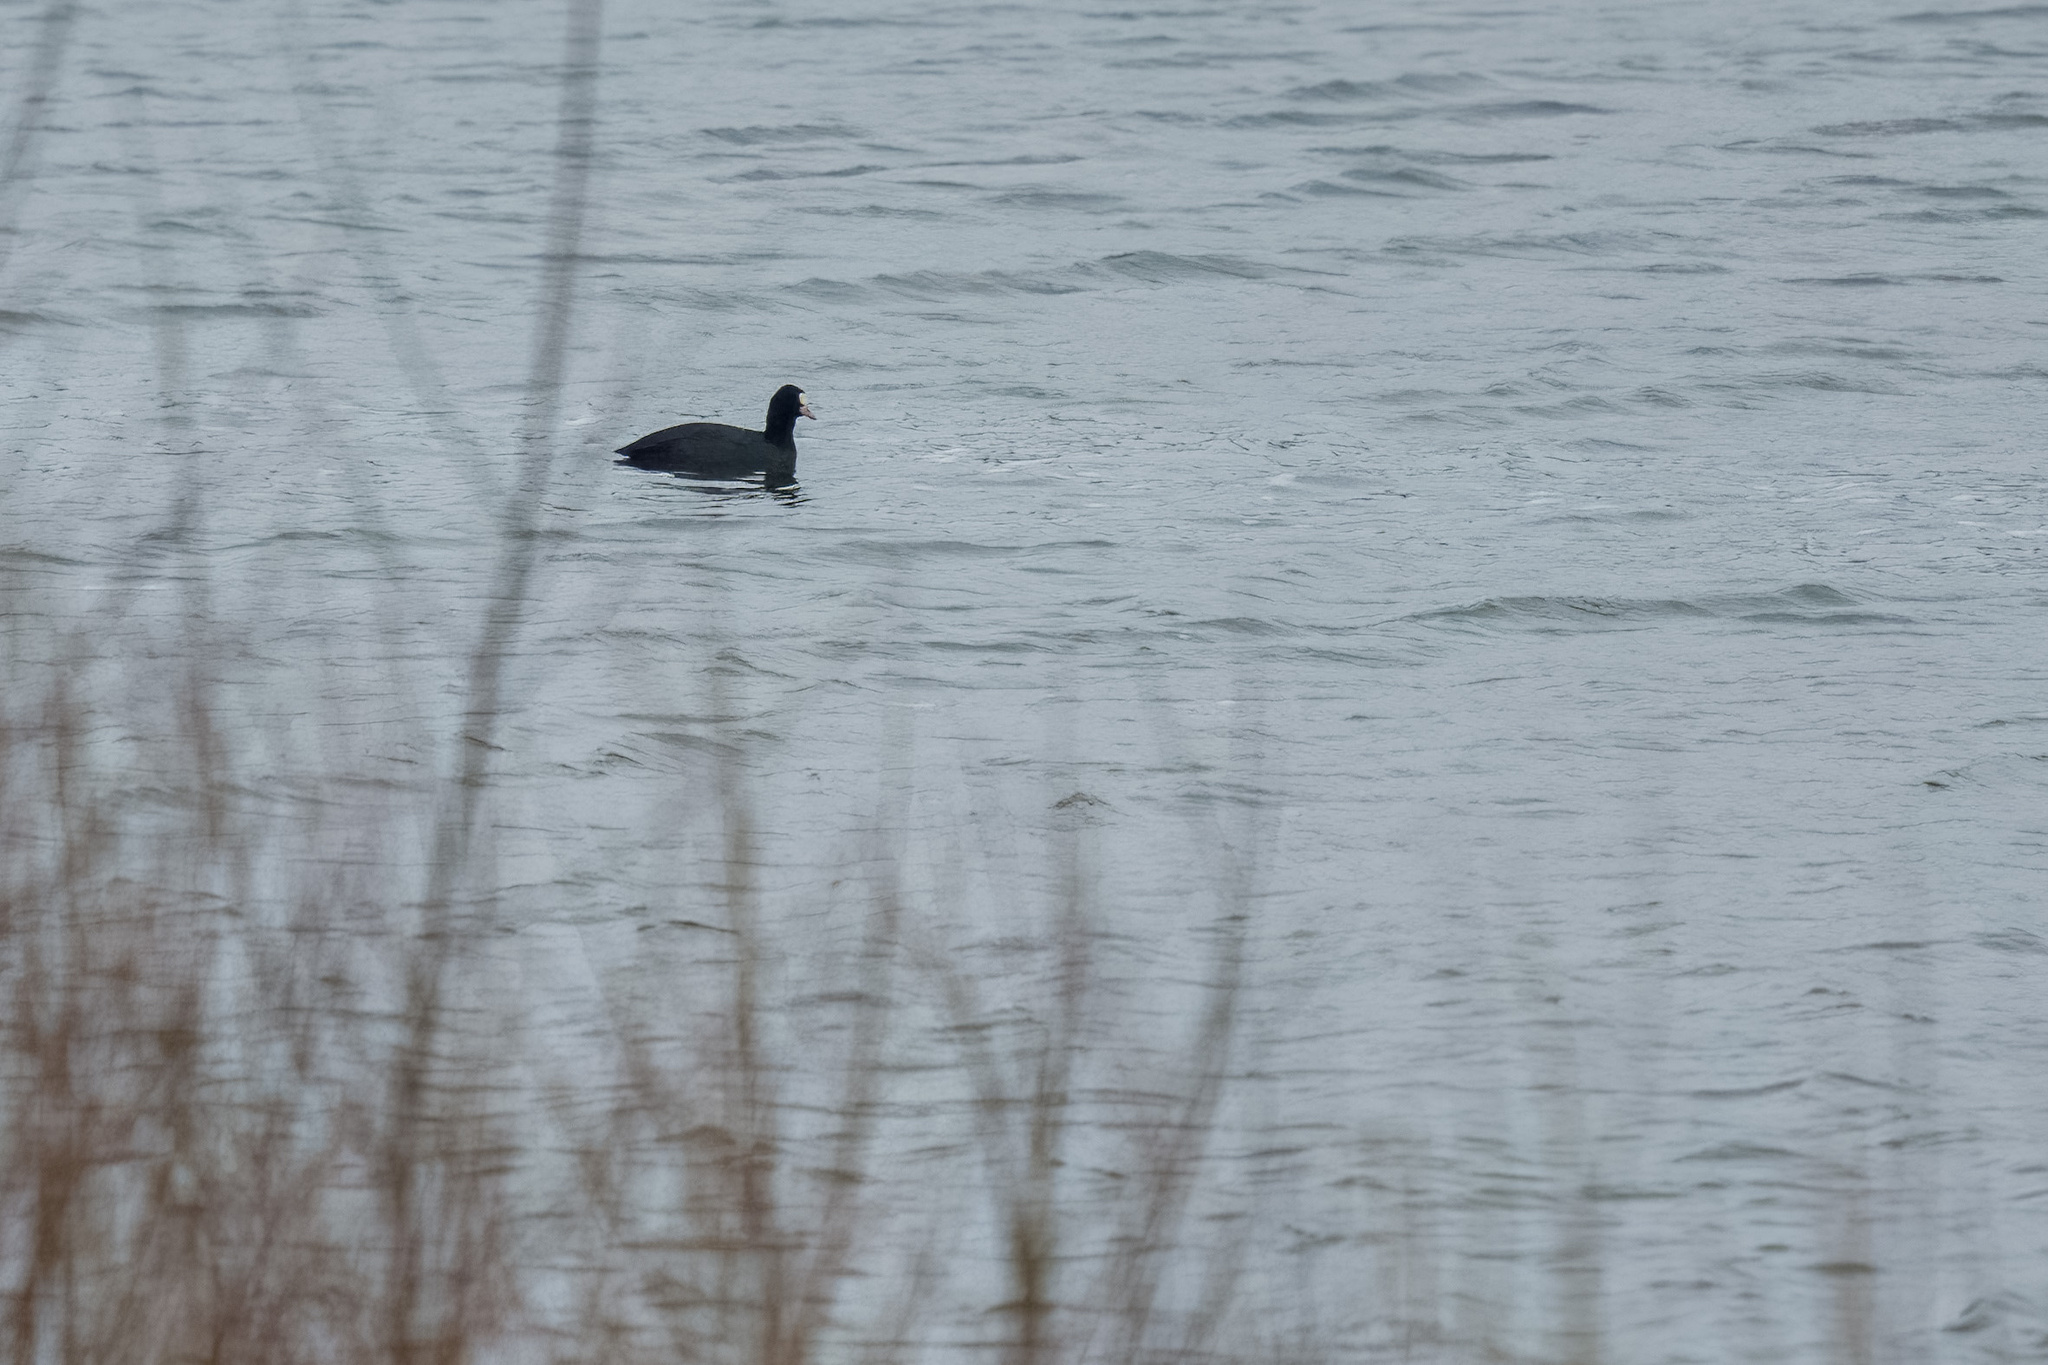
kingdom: Animalia
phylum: Chordata
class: Aves
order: Gruiformes
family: Rallidae
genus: Fulica
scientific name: Fulica atra
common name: Eurasian coot
